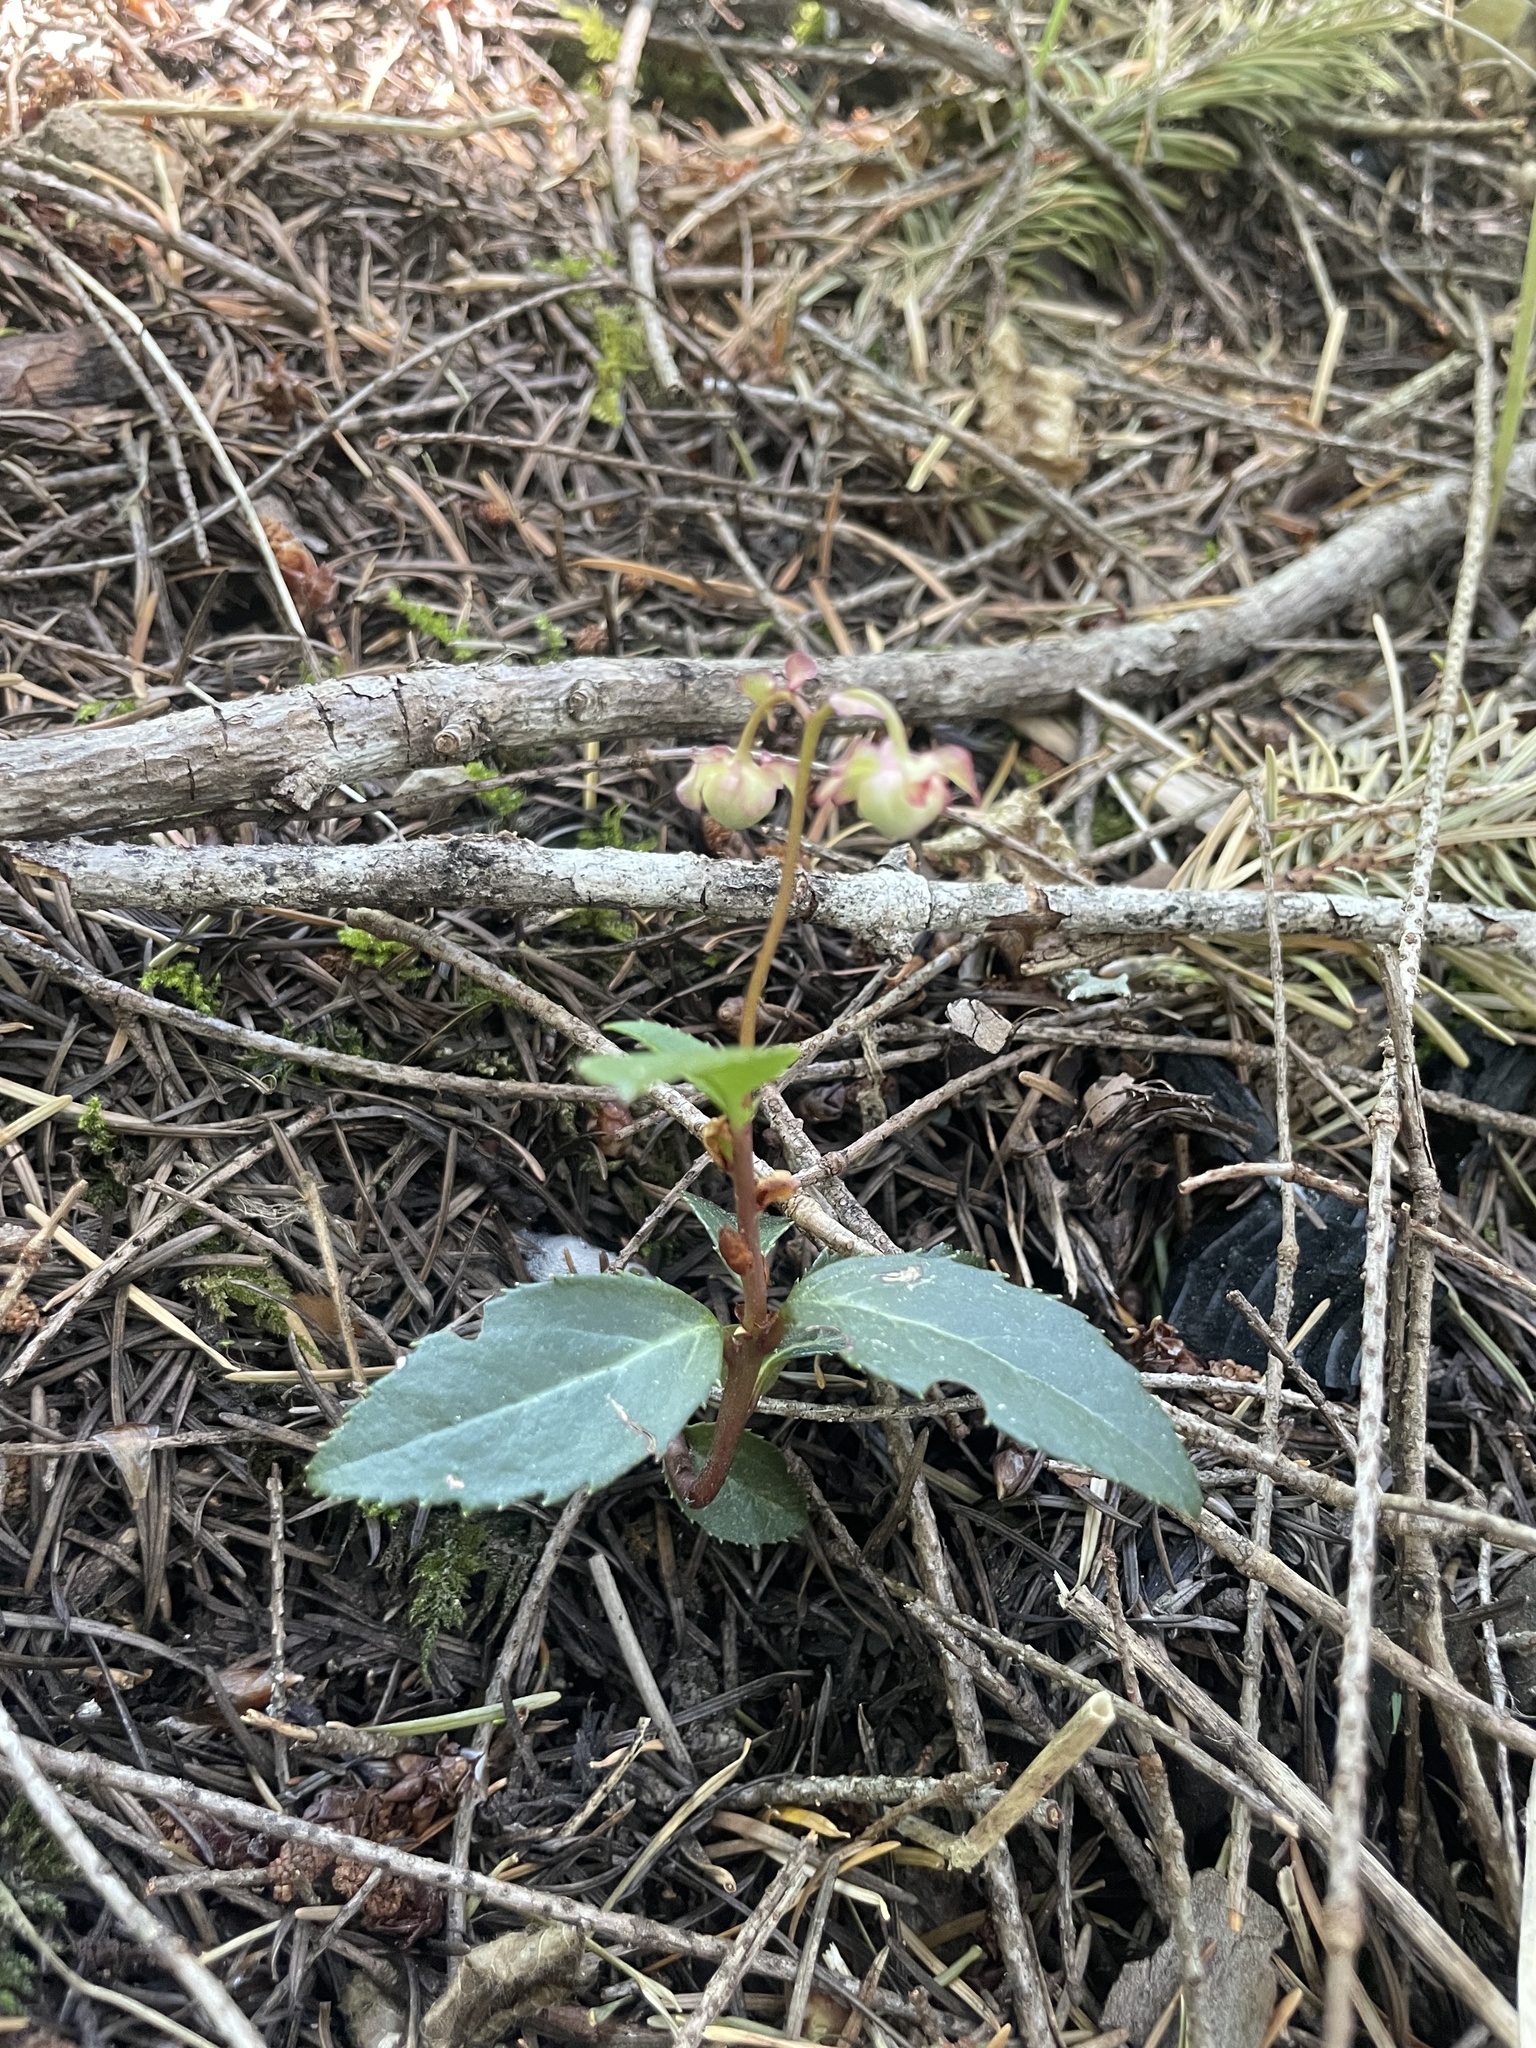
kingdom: Plantae
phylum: Tracheophyta
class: Magnoliopsida
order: Ericales
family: Ericaceae
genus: Chimaphila
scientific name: Chimaphila menziesii
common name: Menzies' pipsissewa
